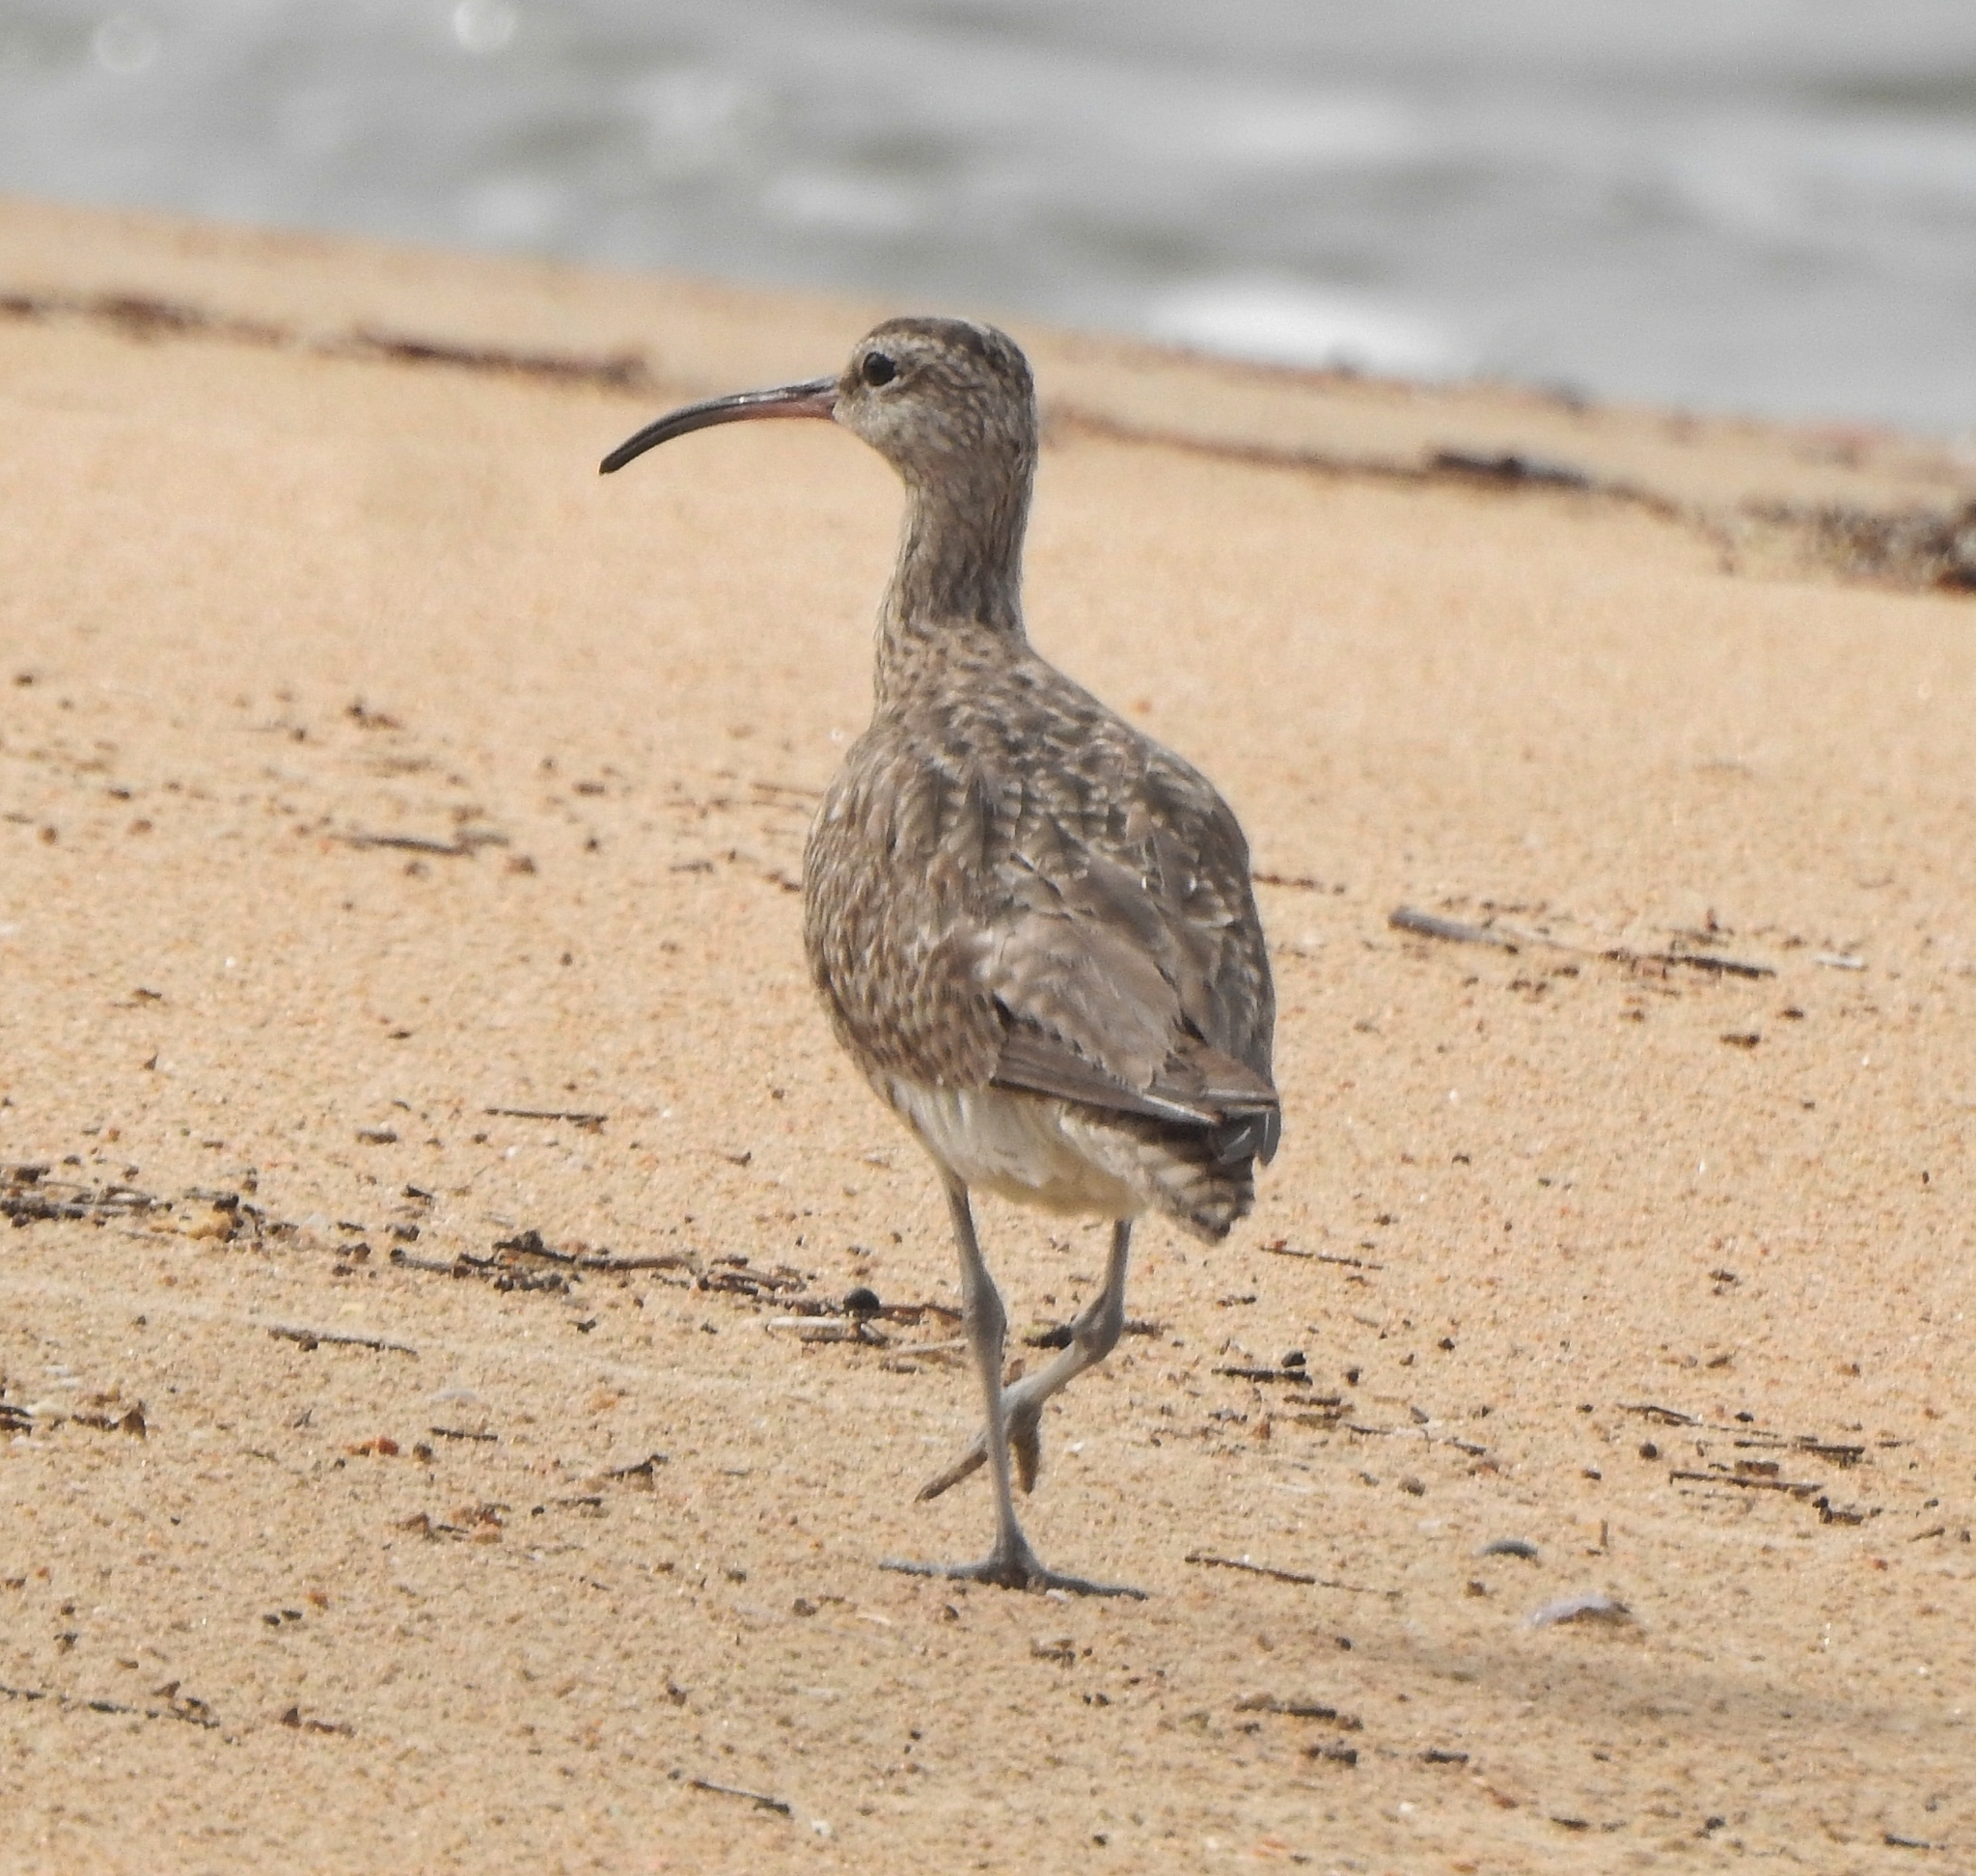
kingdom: Animalia
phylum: Chordata
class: Aves
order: Charadriiformes
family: Scolopacidae
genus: Numenius
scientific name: Numenius phaeopus
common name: Whimbrel
